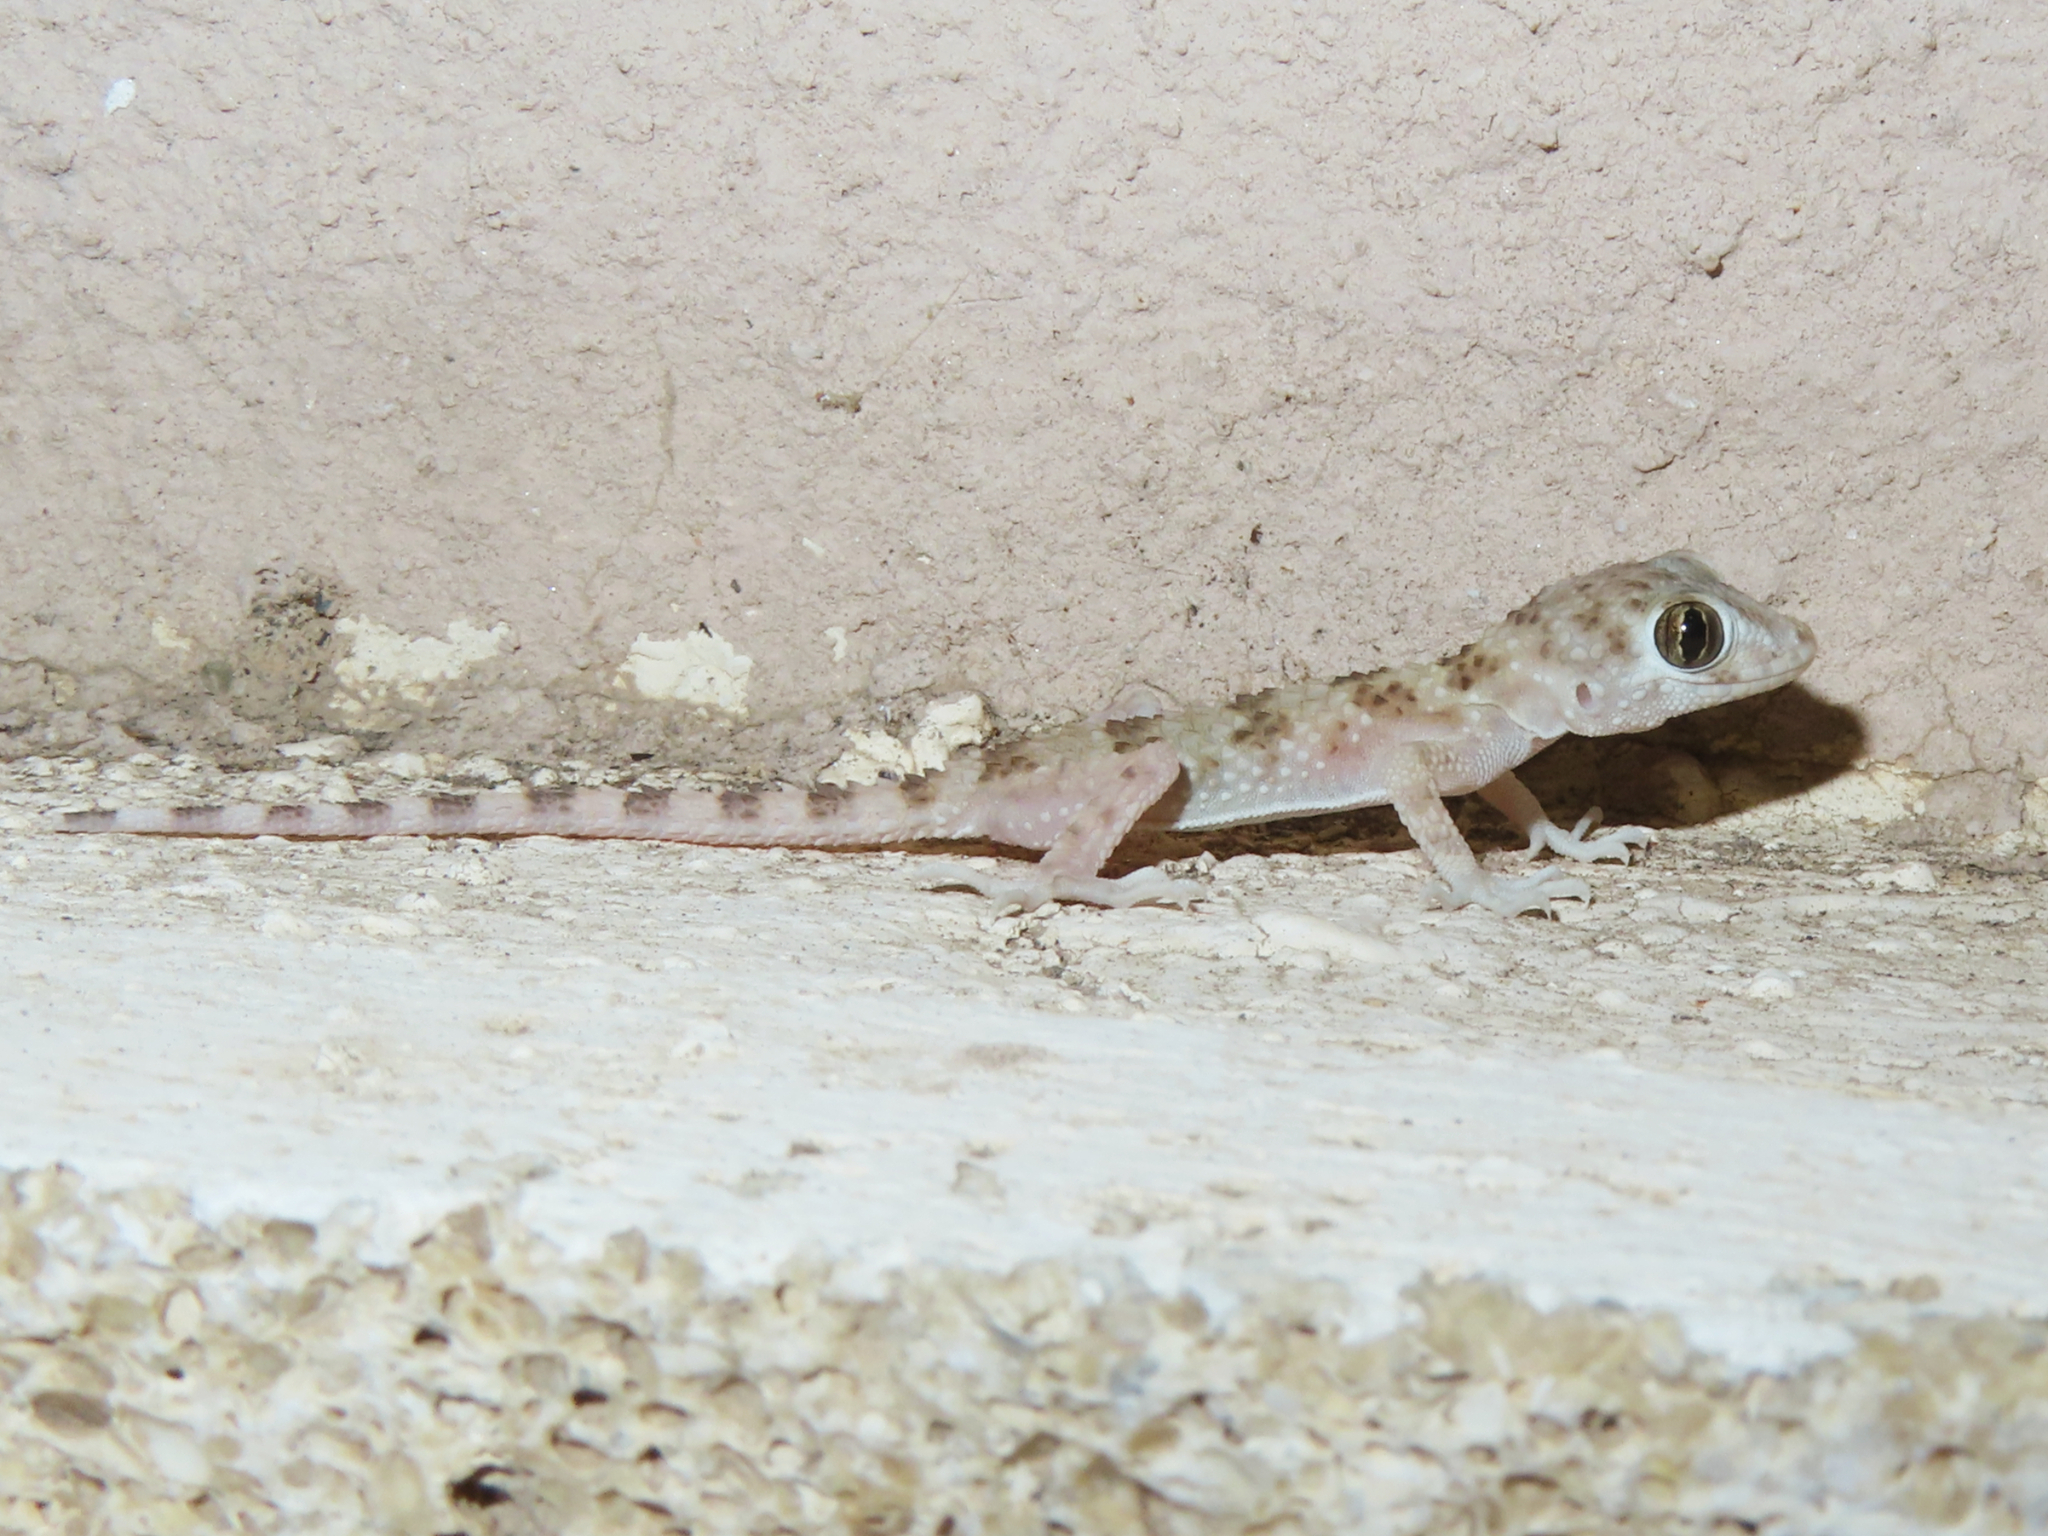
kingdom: Animalia
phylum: Chordata
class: Squamata
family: Gekkonidae
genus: Tenuidactylus
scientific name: Tenuidactylus caspius
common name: Caspian bent-toed gecko
